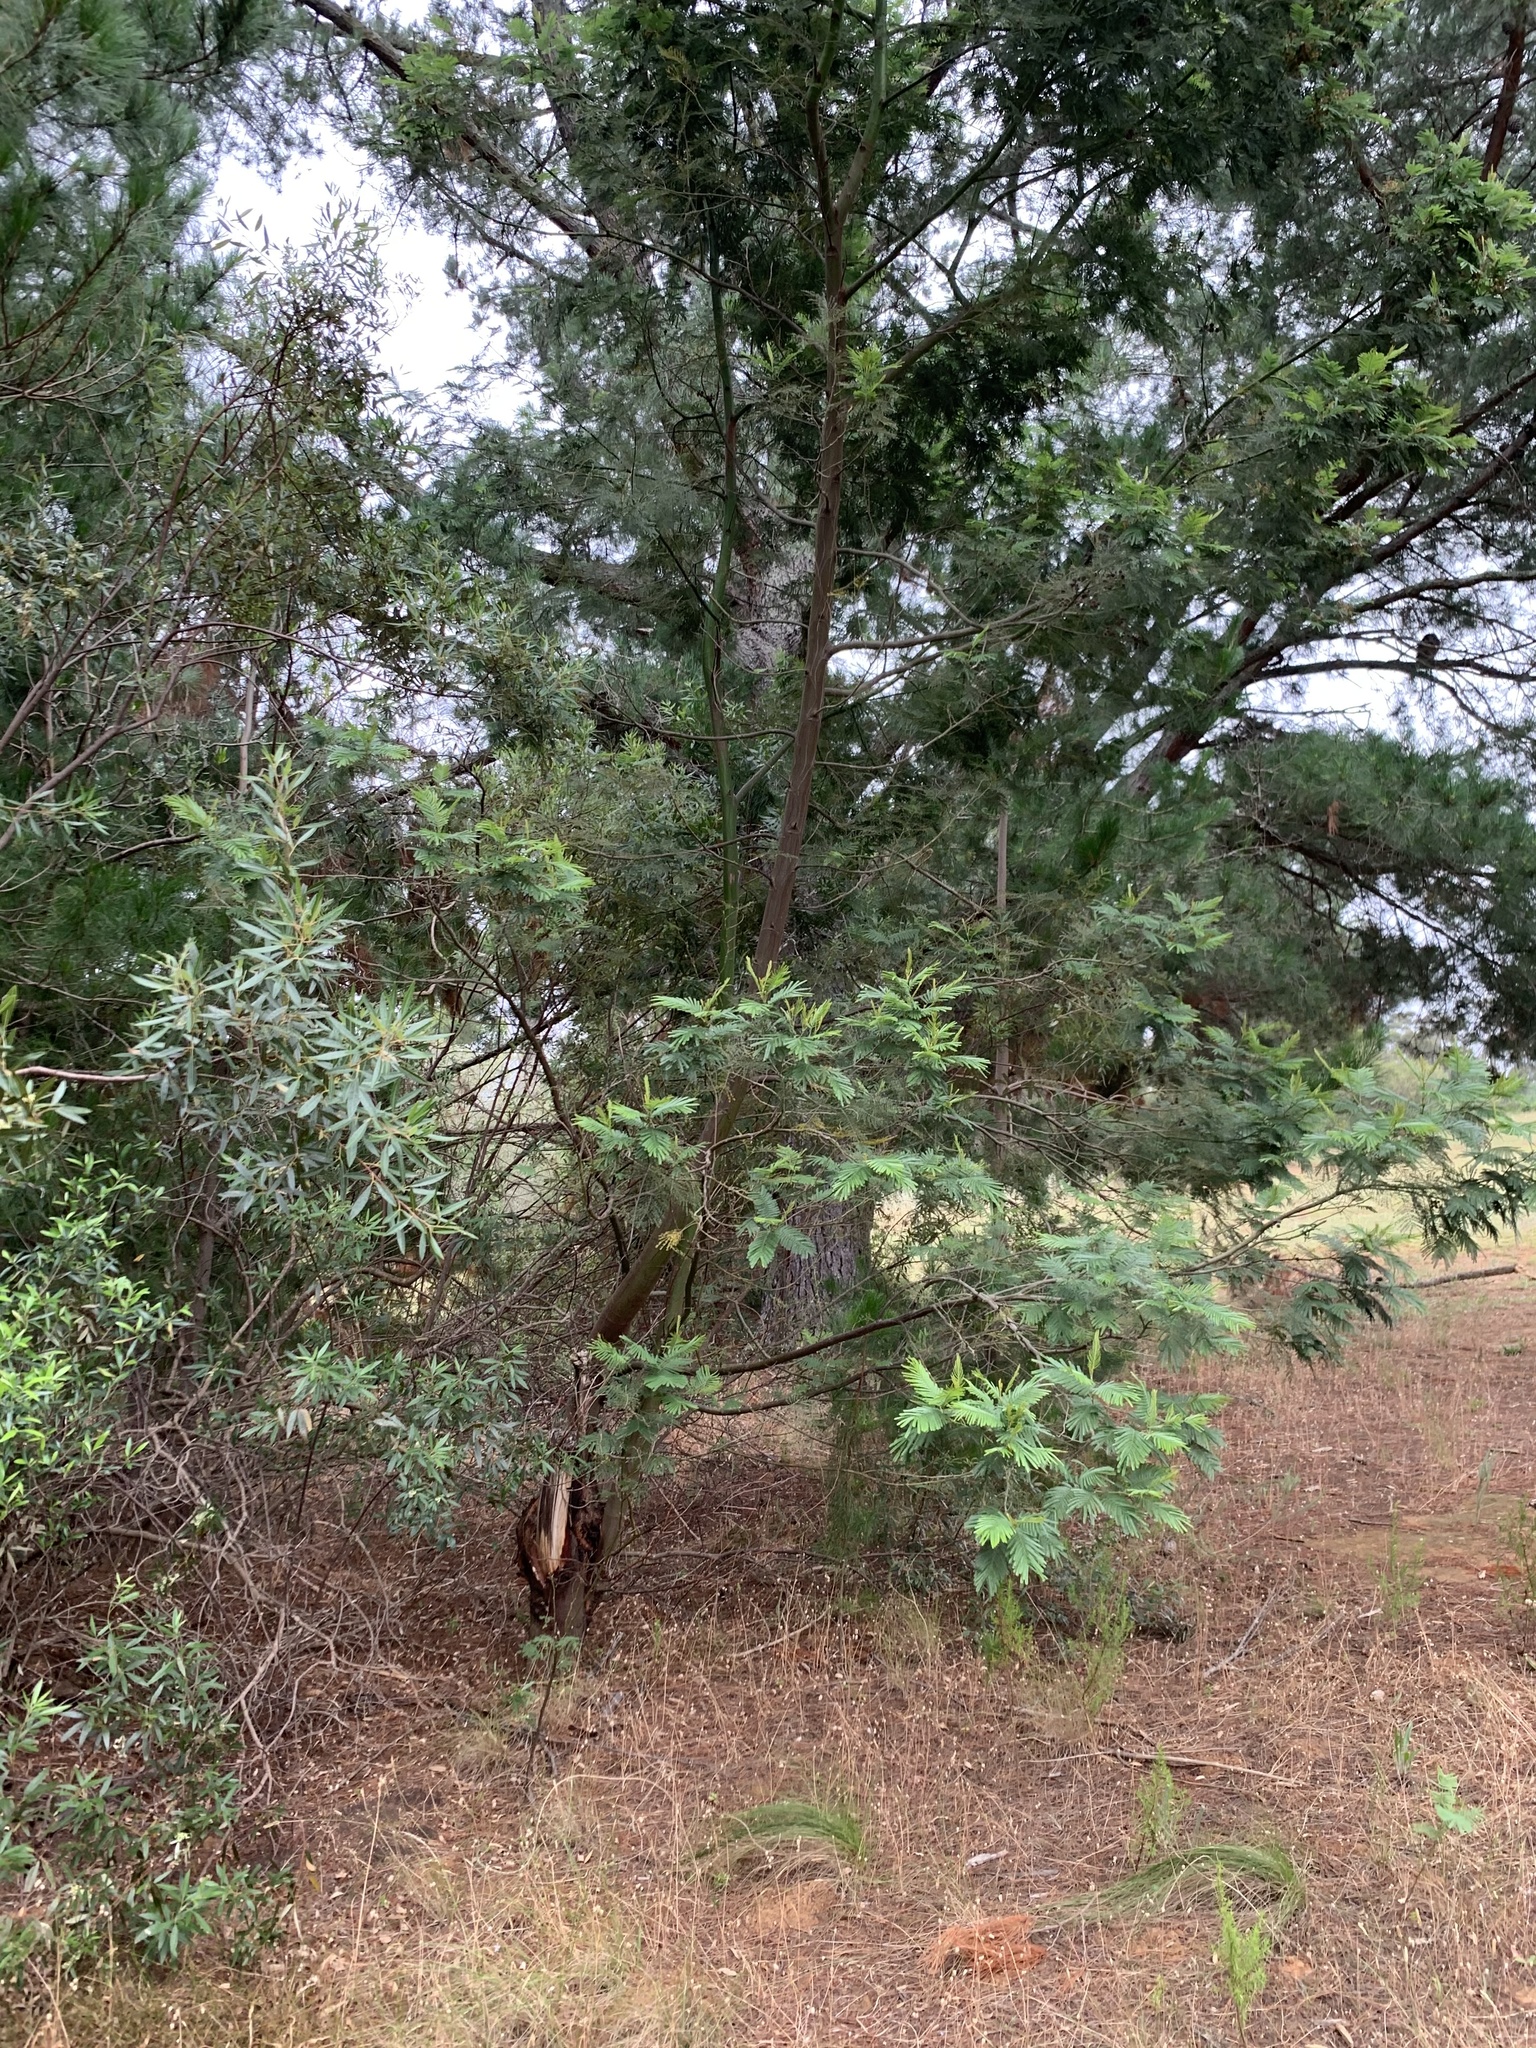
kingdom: Plantae
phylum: Tracheophyta
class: Magnoliopsida
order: Fabales
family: Fabaceae
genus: Acacia
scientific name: Acacia mearnsii
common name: Black wattle
